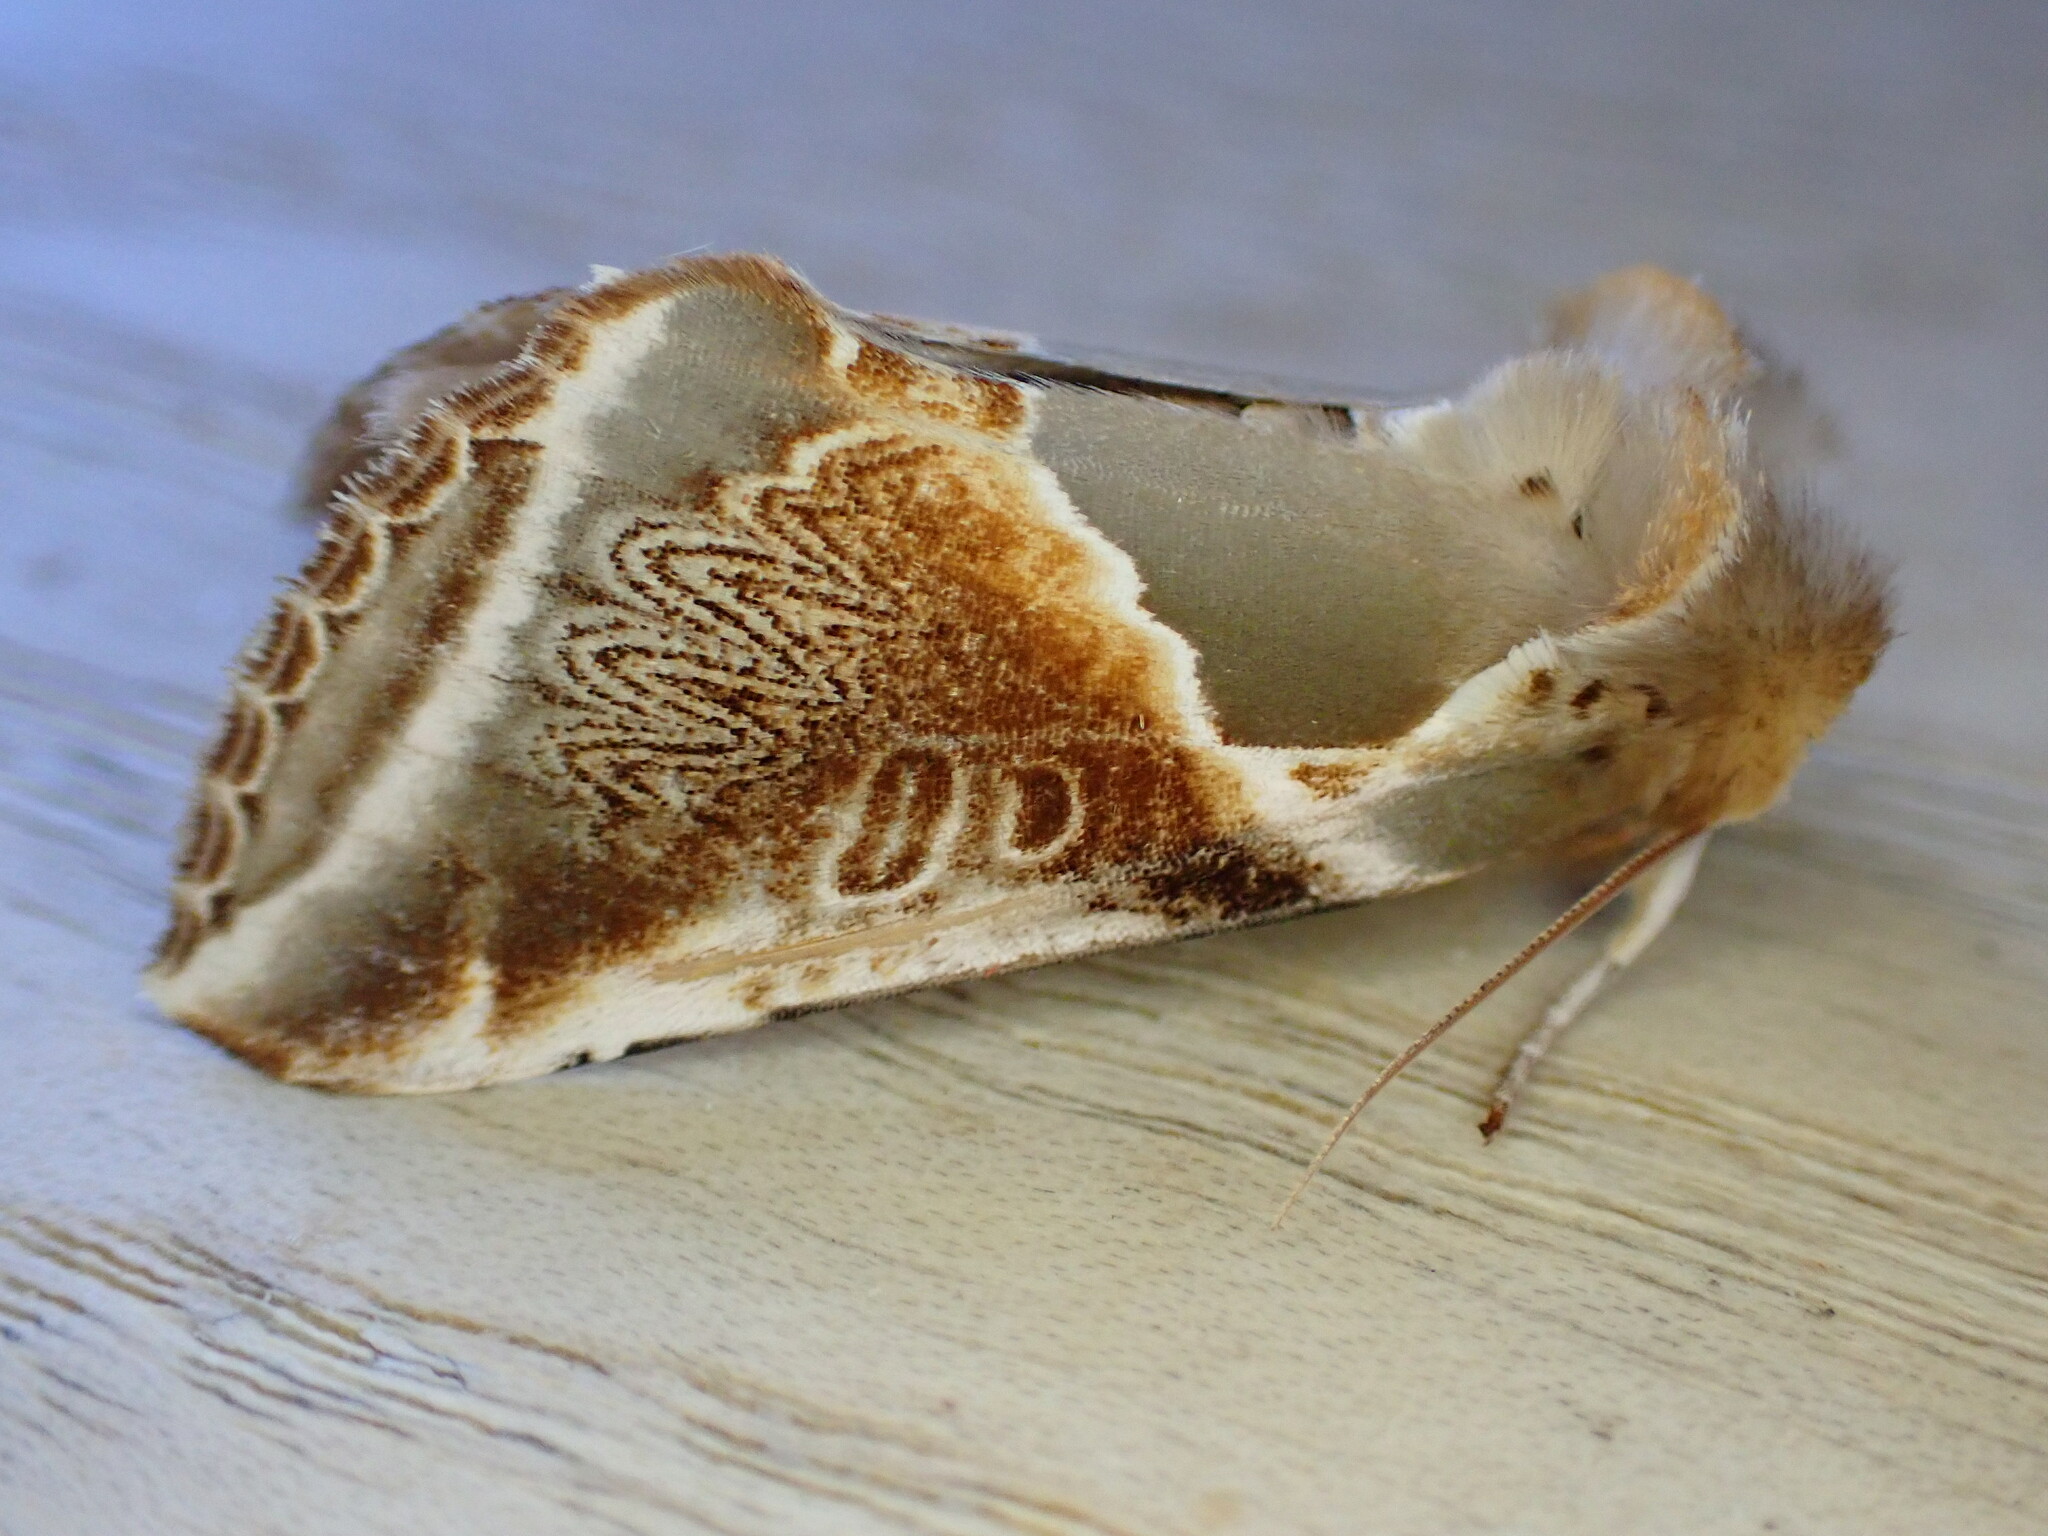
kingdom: Animalia
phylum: Arthropoda
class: Insecta
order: Lepidoptera
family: Drepanidae
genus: Habrosyne
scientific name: Habrosyne pyritoides
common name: Buff arches
